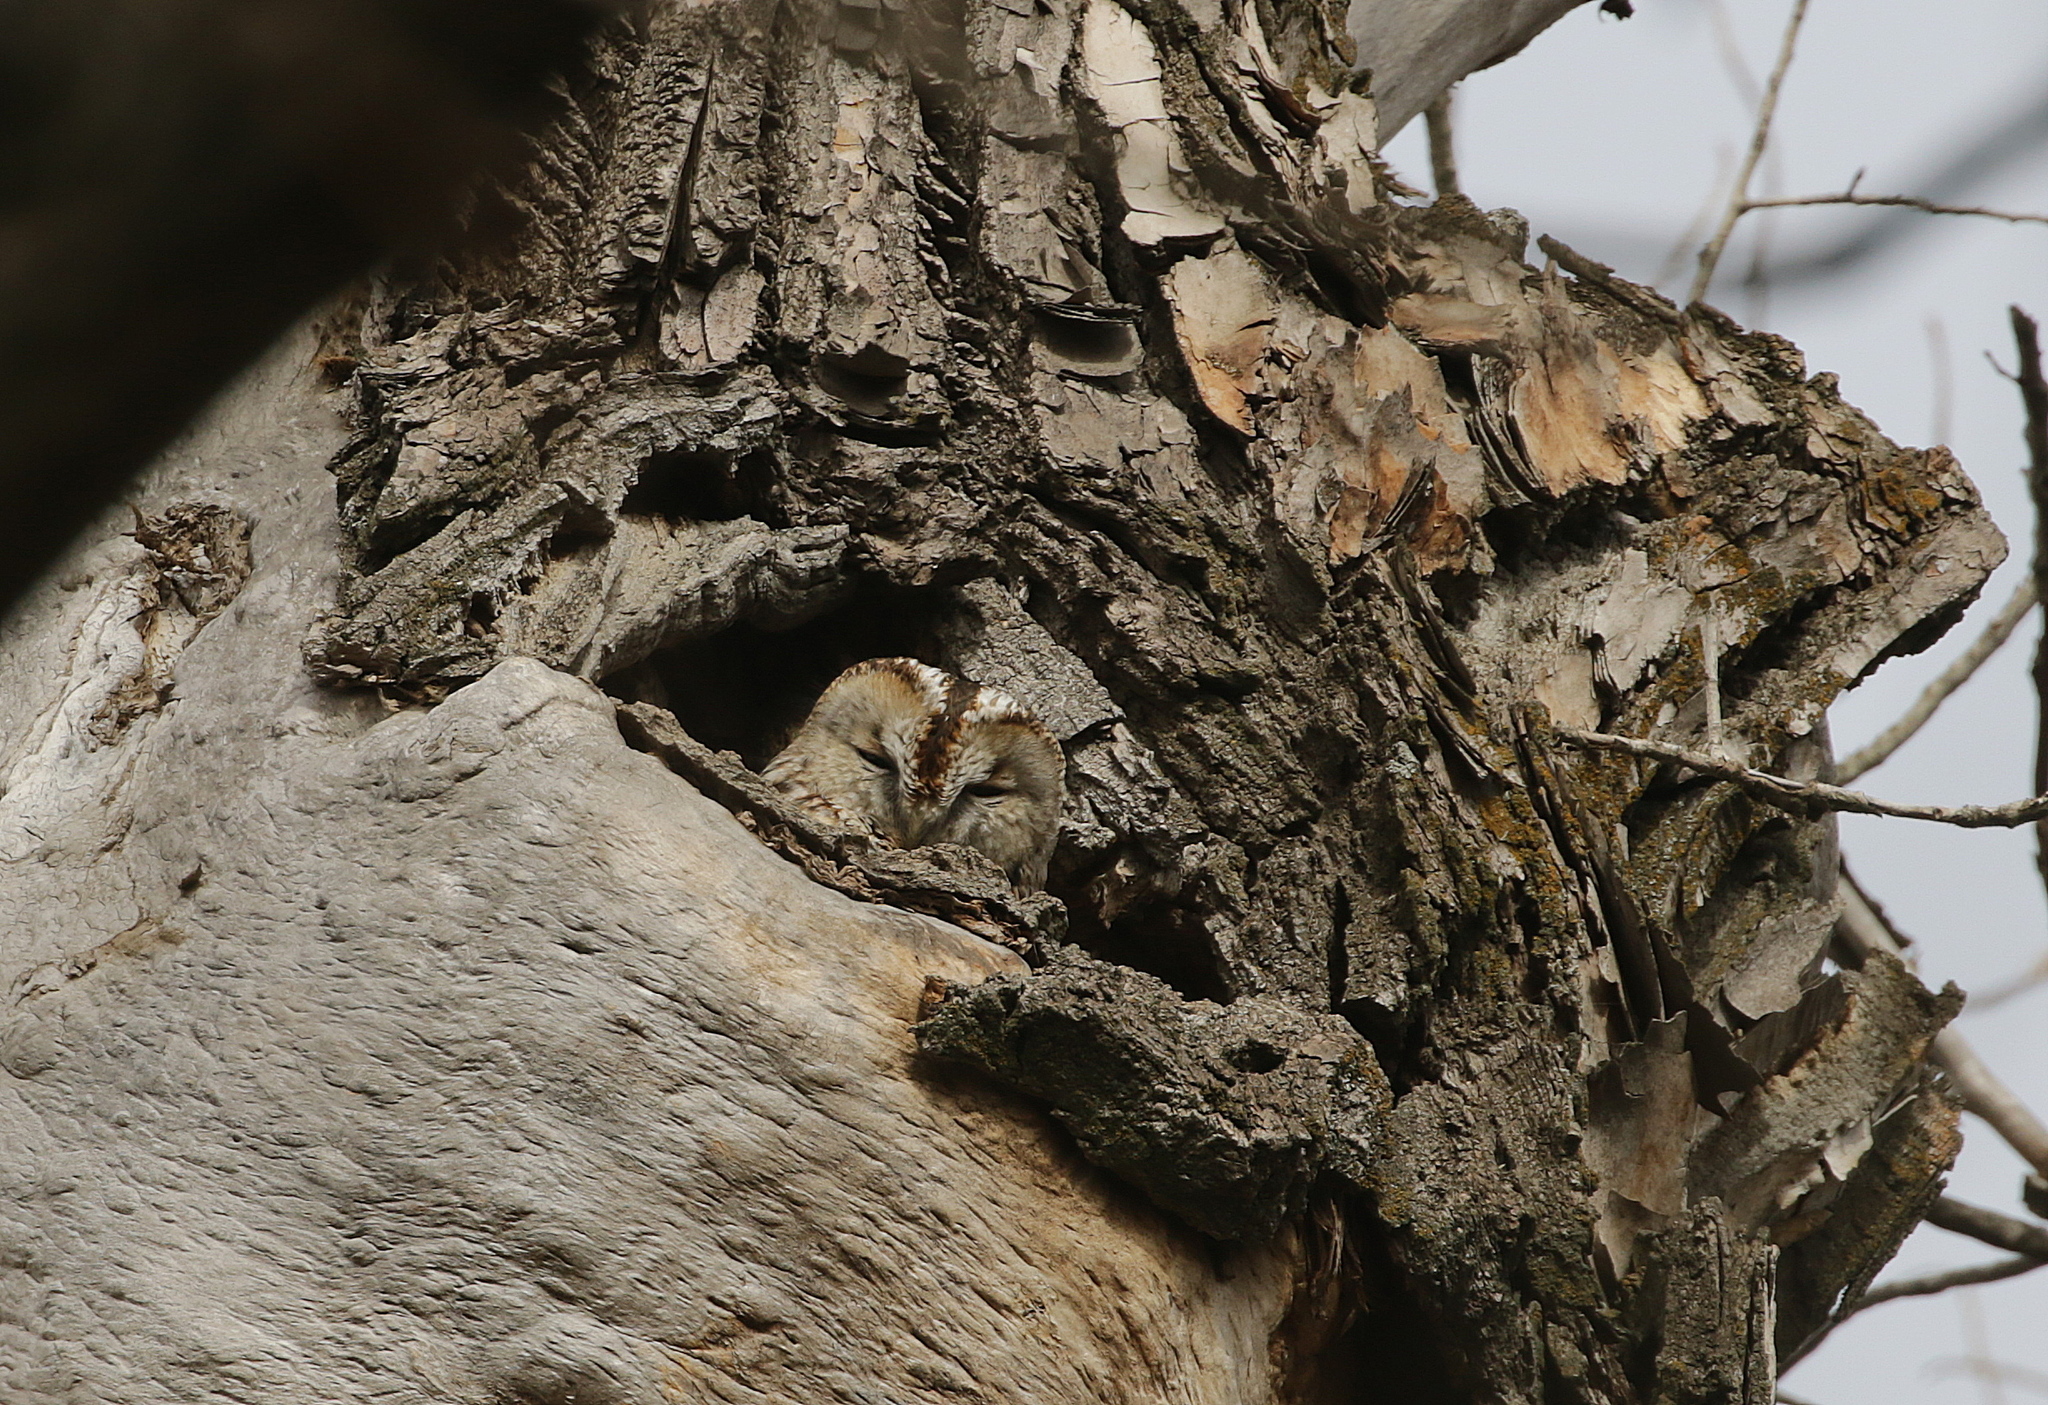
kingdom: Animalia
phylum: Chordata
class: Aves
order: Strigiformes
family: Strigidae
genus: Strix
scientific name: Strix aluco
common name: Tawny owl
